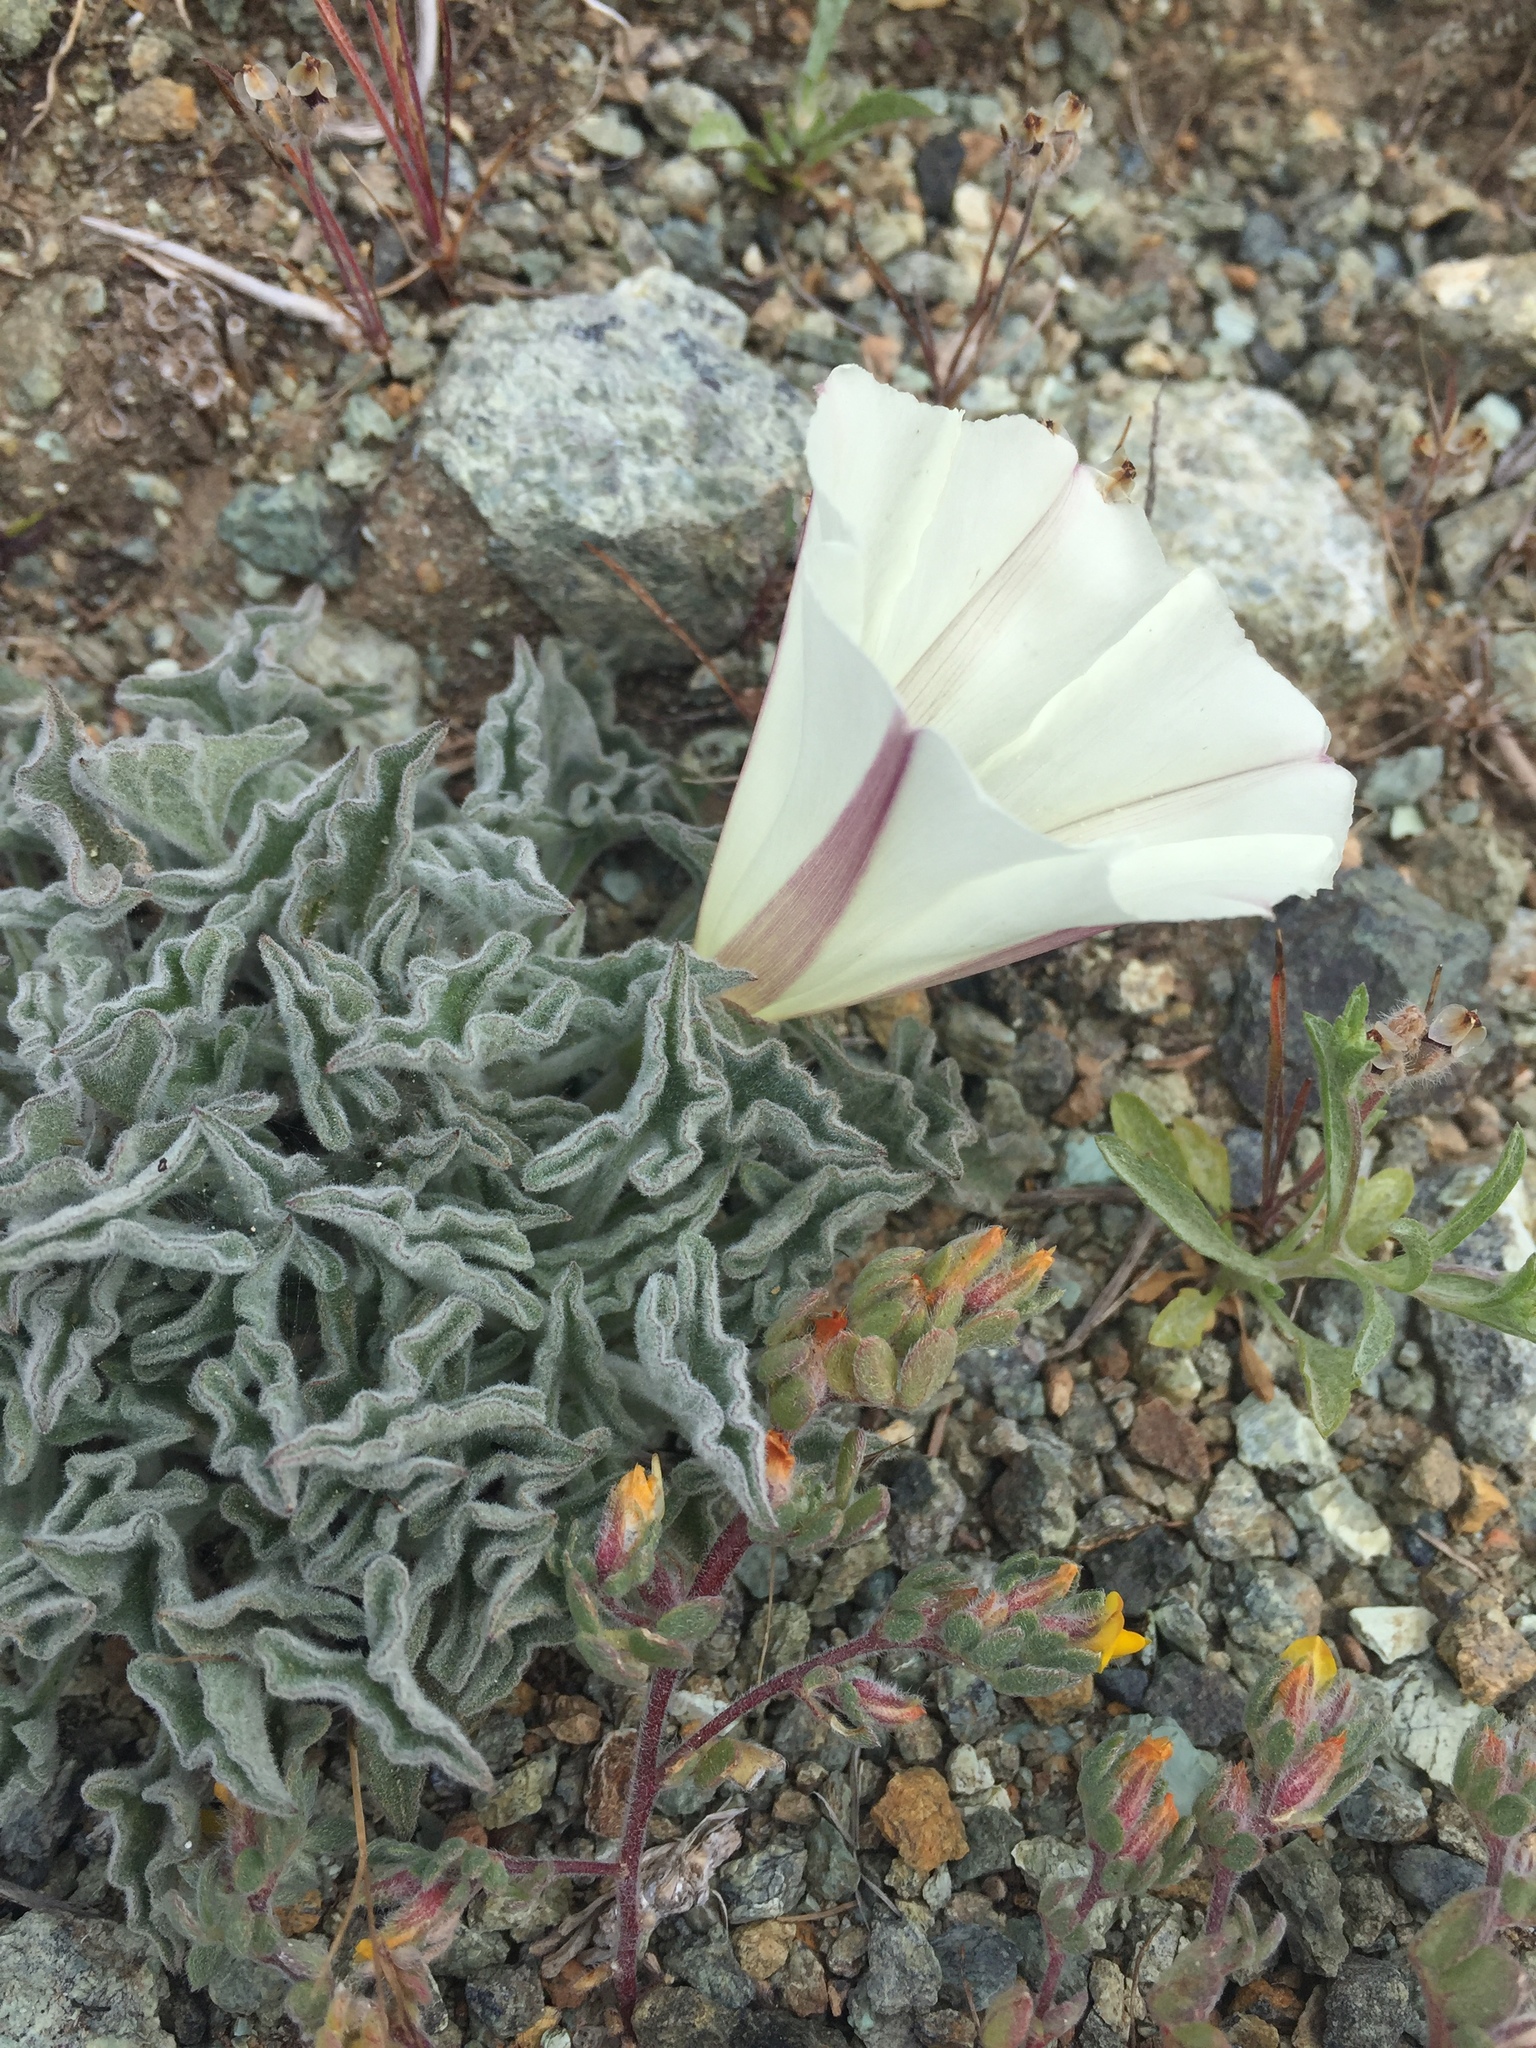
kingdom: Plantae
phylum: Tracheophyta
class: Magnoliopsida
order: Solanales
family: Convolvulaceae
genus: Calystegia
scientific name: Calystegia collina
